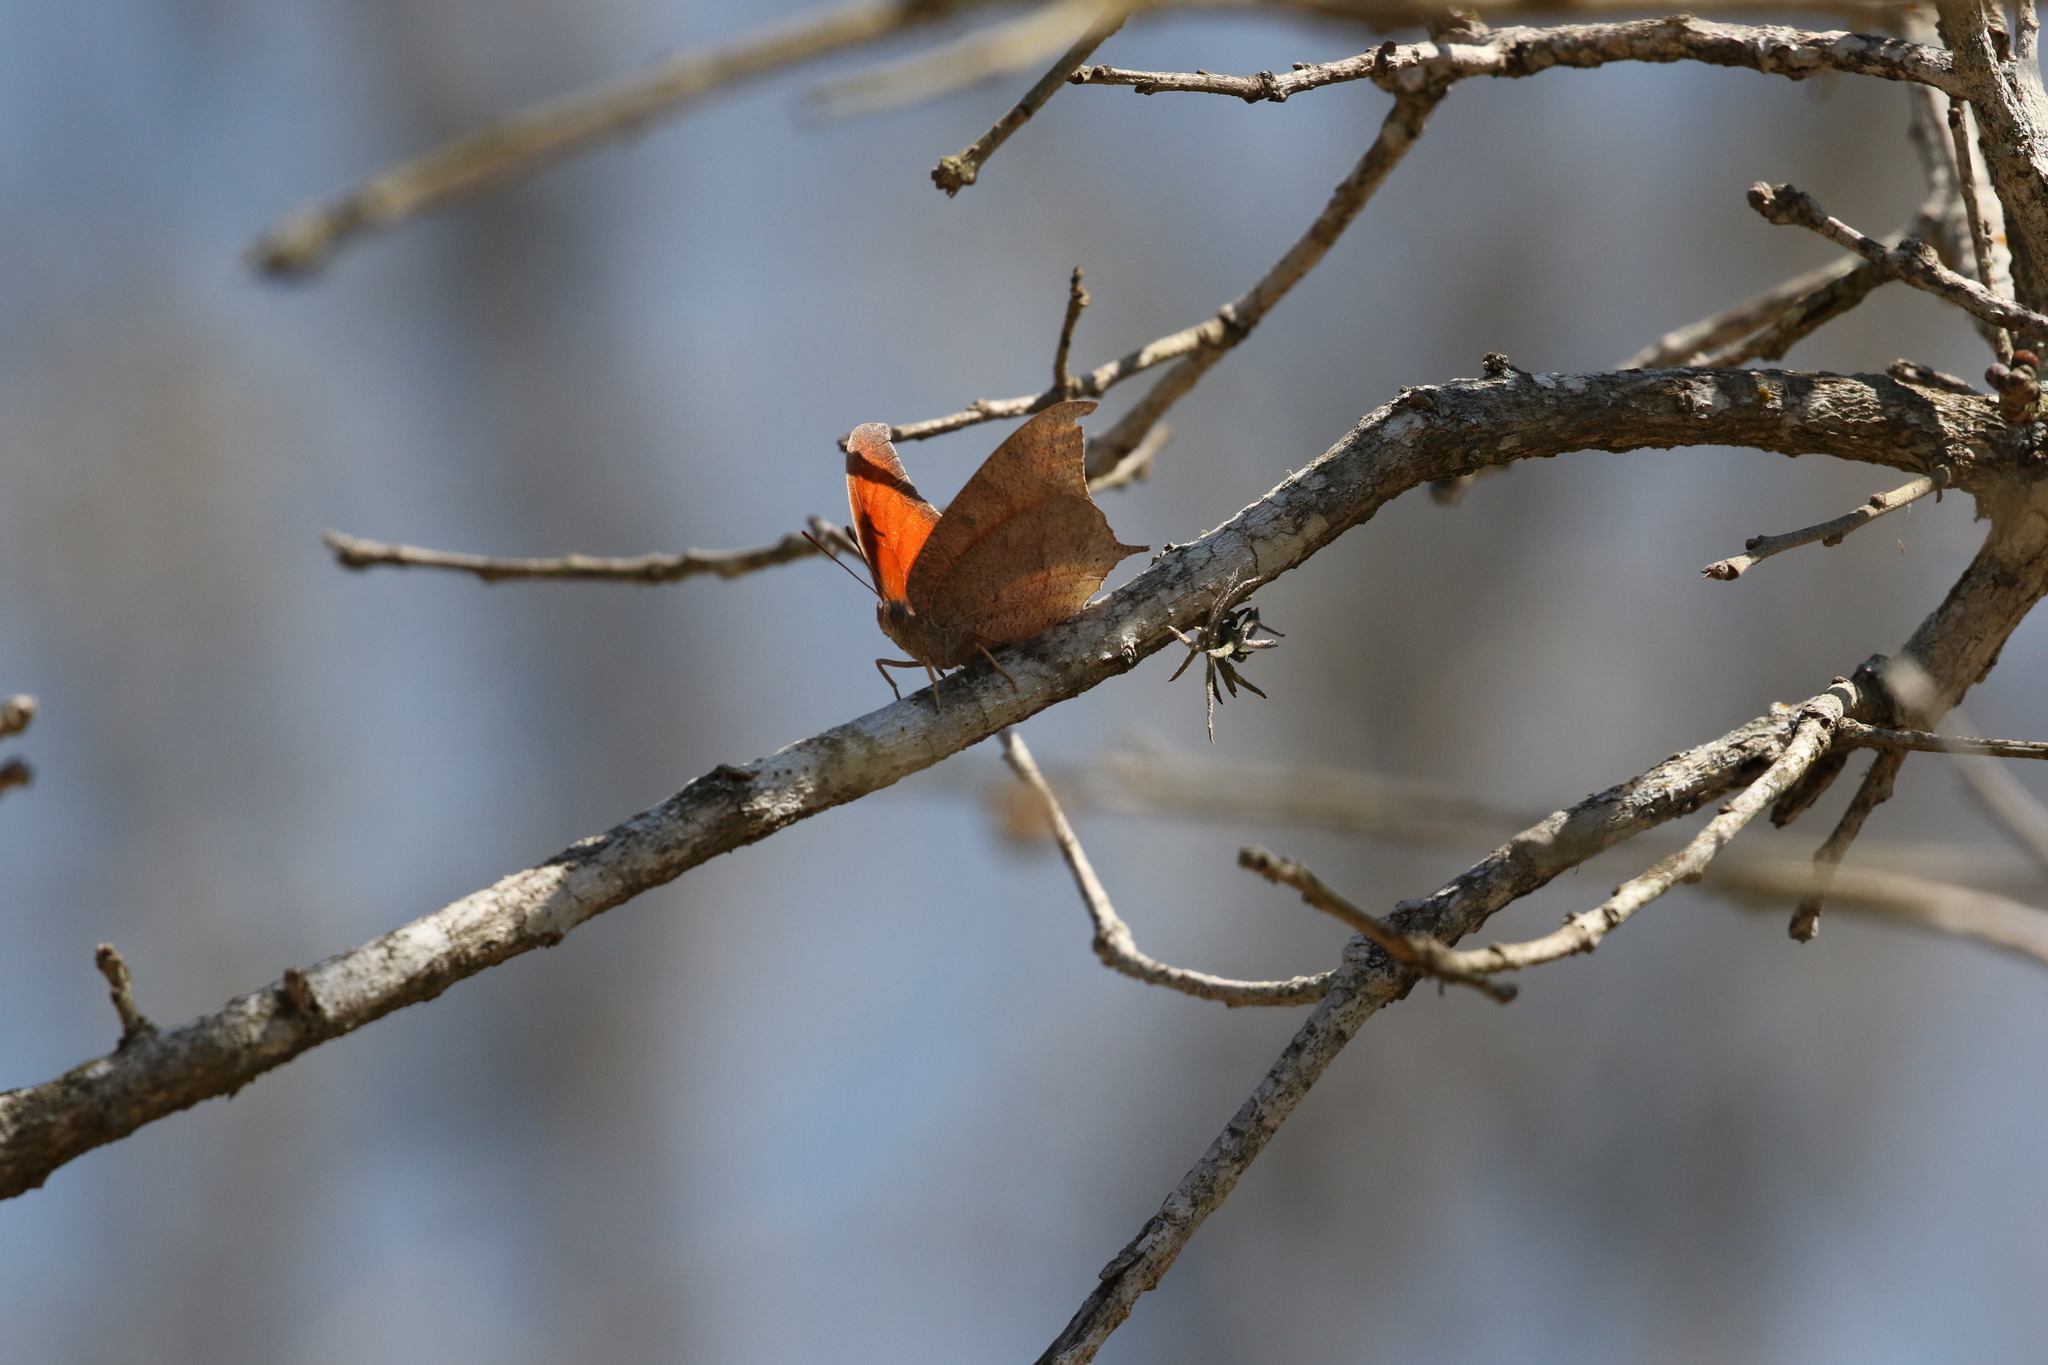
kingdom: Animalia
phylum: Arthropoda
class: Insecta
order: Lepidoptera
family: Nymphalidae
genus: Anaea
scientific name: Anaea andria
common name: Goatweed leafwing
